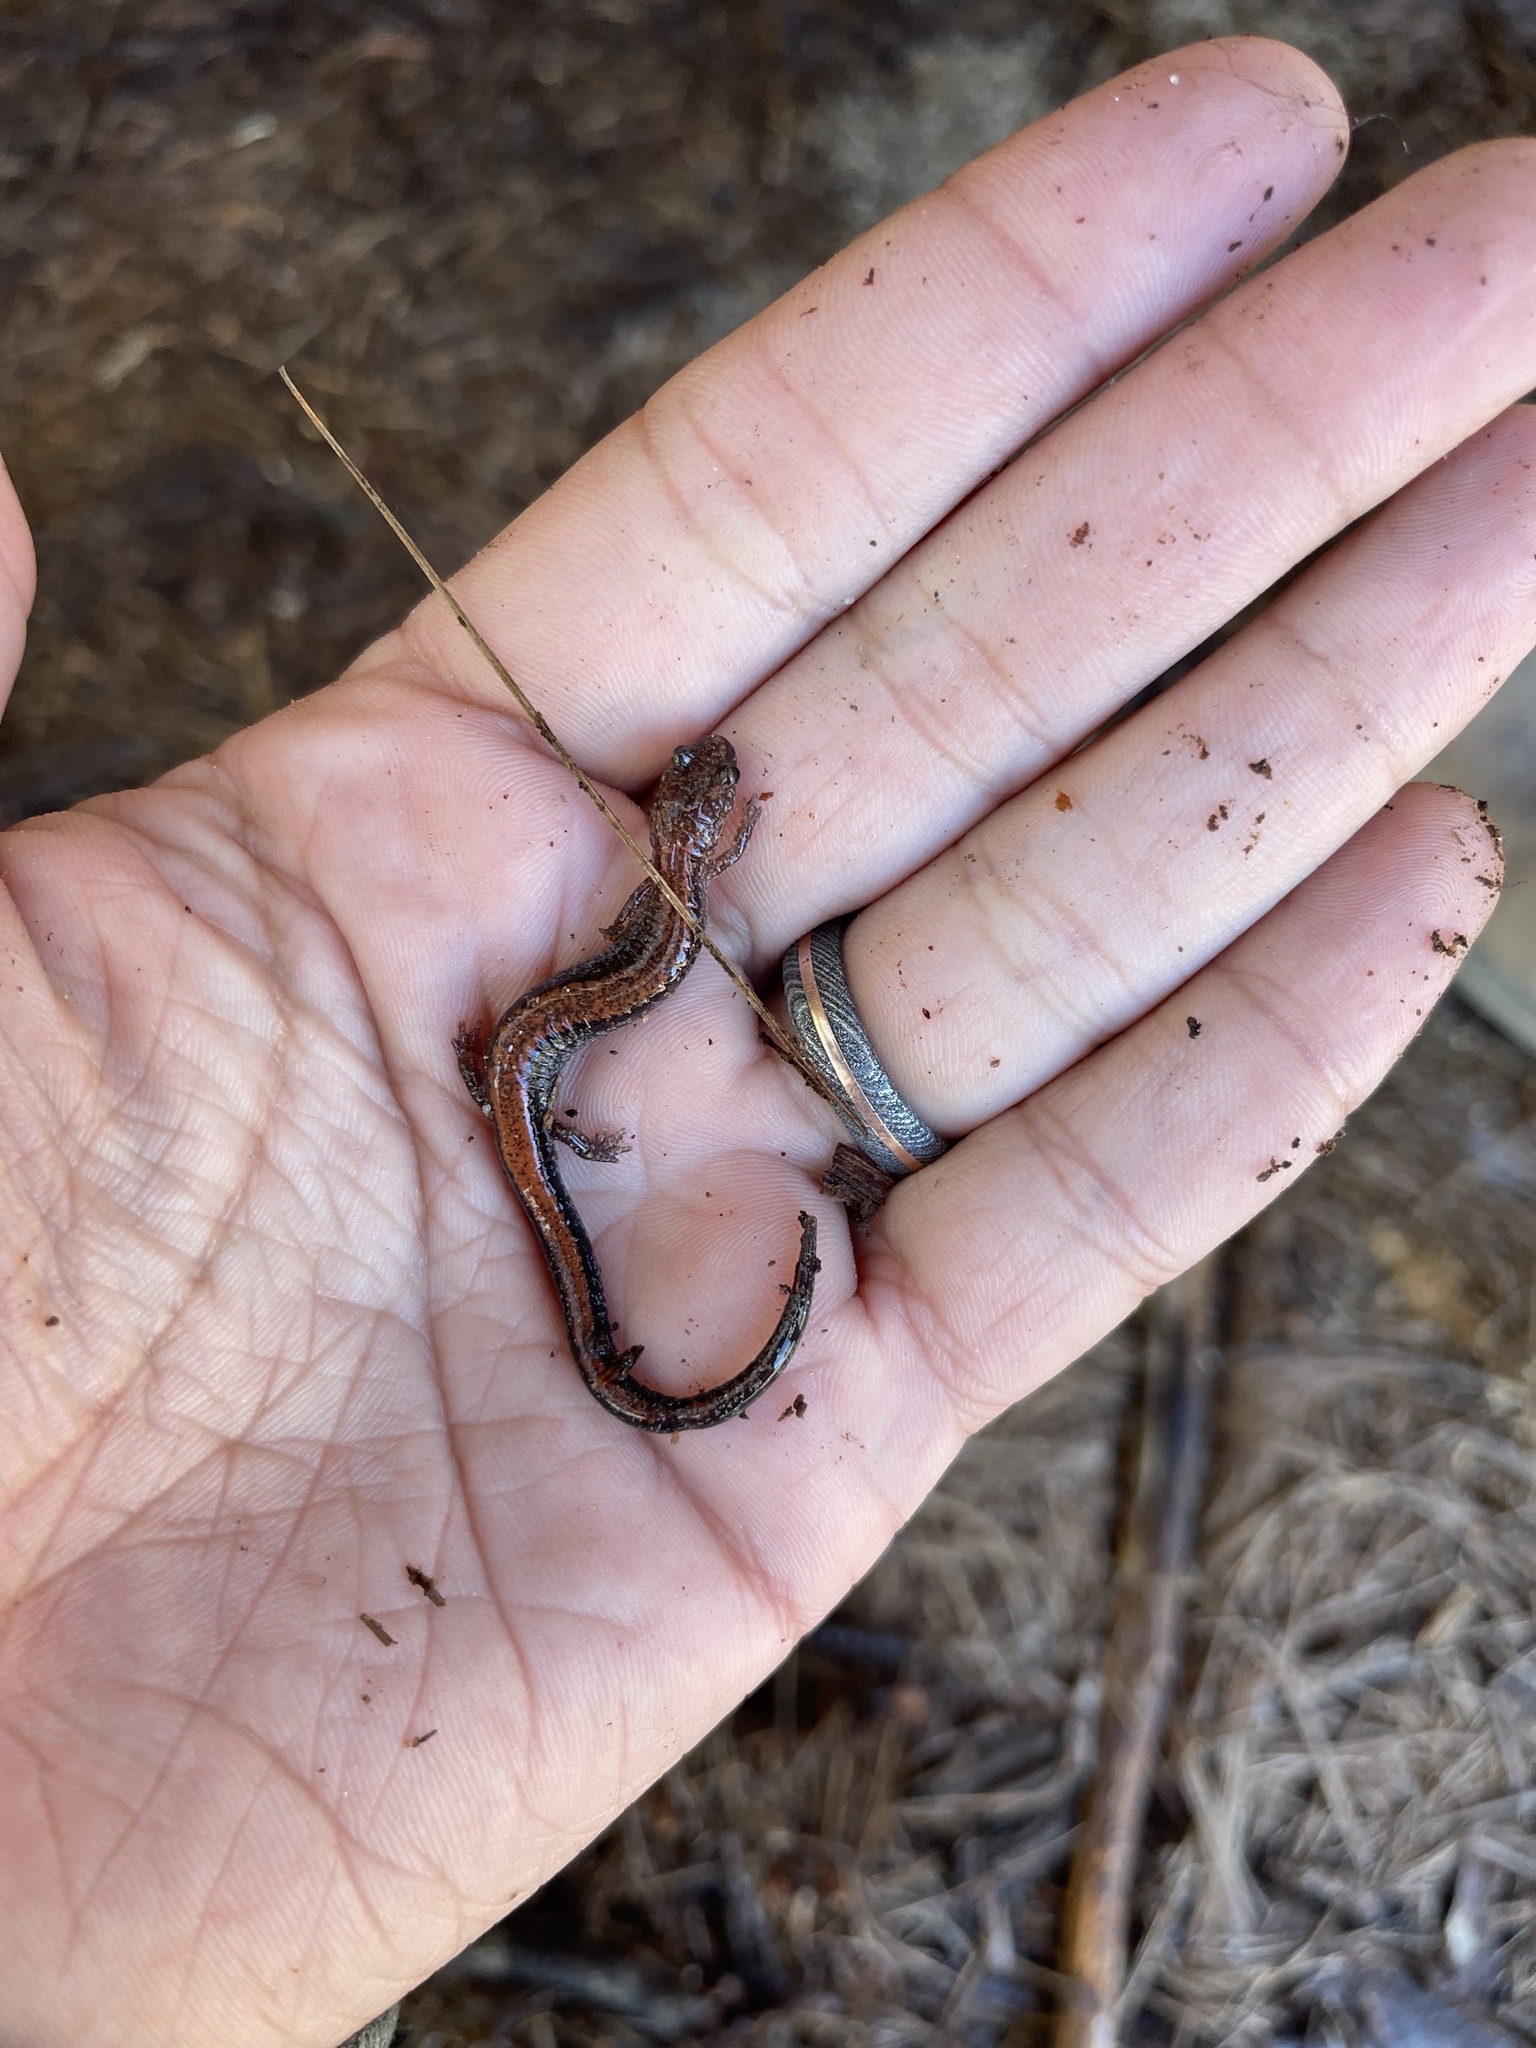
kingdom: Animalia
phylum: Chordata
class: Amphibia
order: Caudata
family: Plethodontidae
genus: Plethodon
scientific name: Plethodon cinereus
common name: Redback salamander
